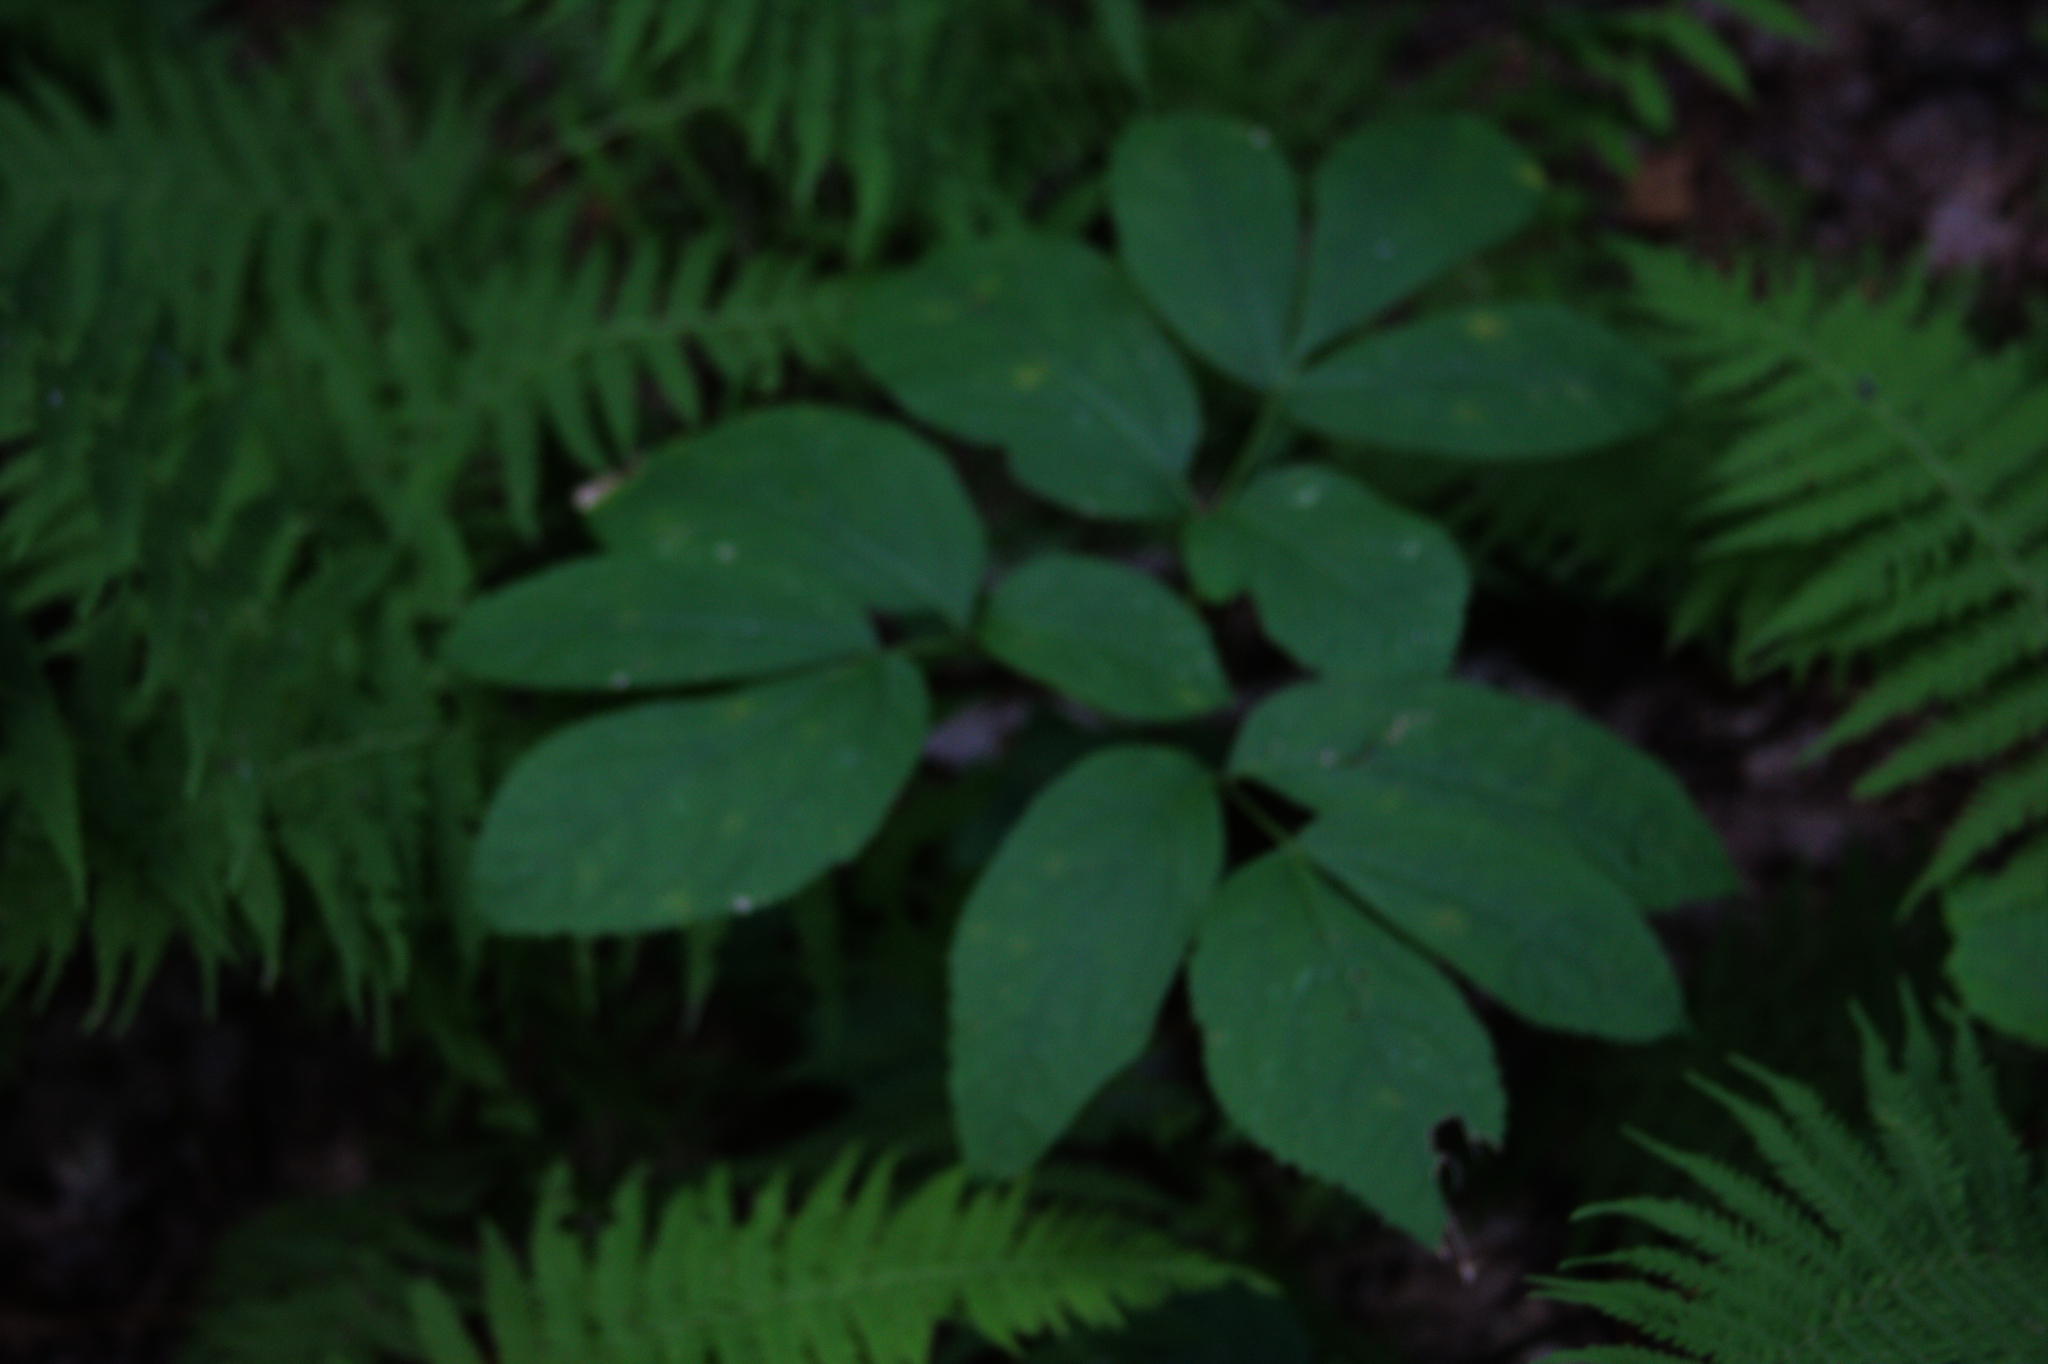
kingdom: Plantae
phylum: Tracheophyta
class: Magnoliopsida
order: Apiales
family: Araliaceae
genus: Aralia
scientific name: Aralia nudicaulis
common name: Wild sarsaparilla
